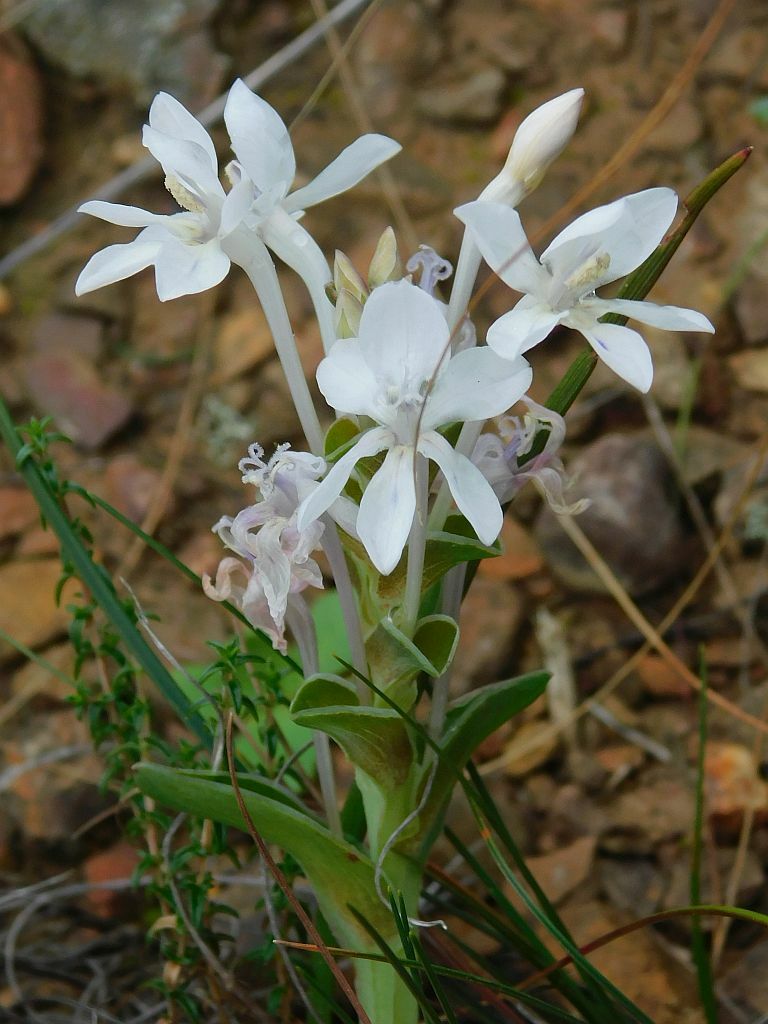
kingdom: Plantae
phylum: Tracheophyta
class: Liliopsida
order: Asparagales
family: Iridaceae
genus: Lapeirousia
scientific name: Lapeirousia pyramidalis
